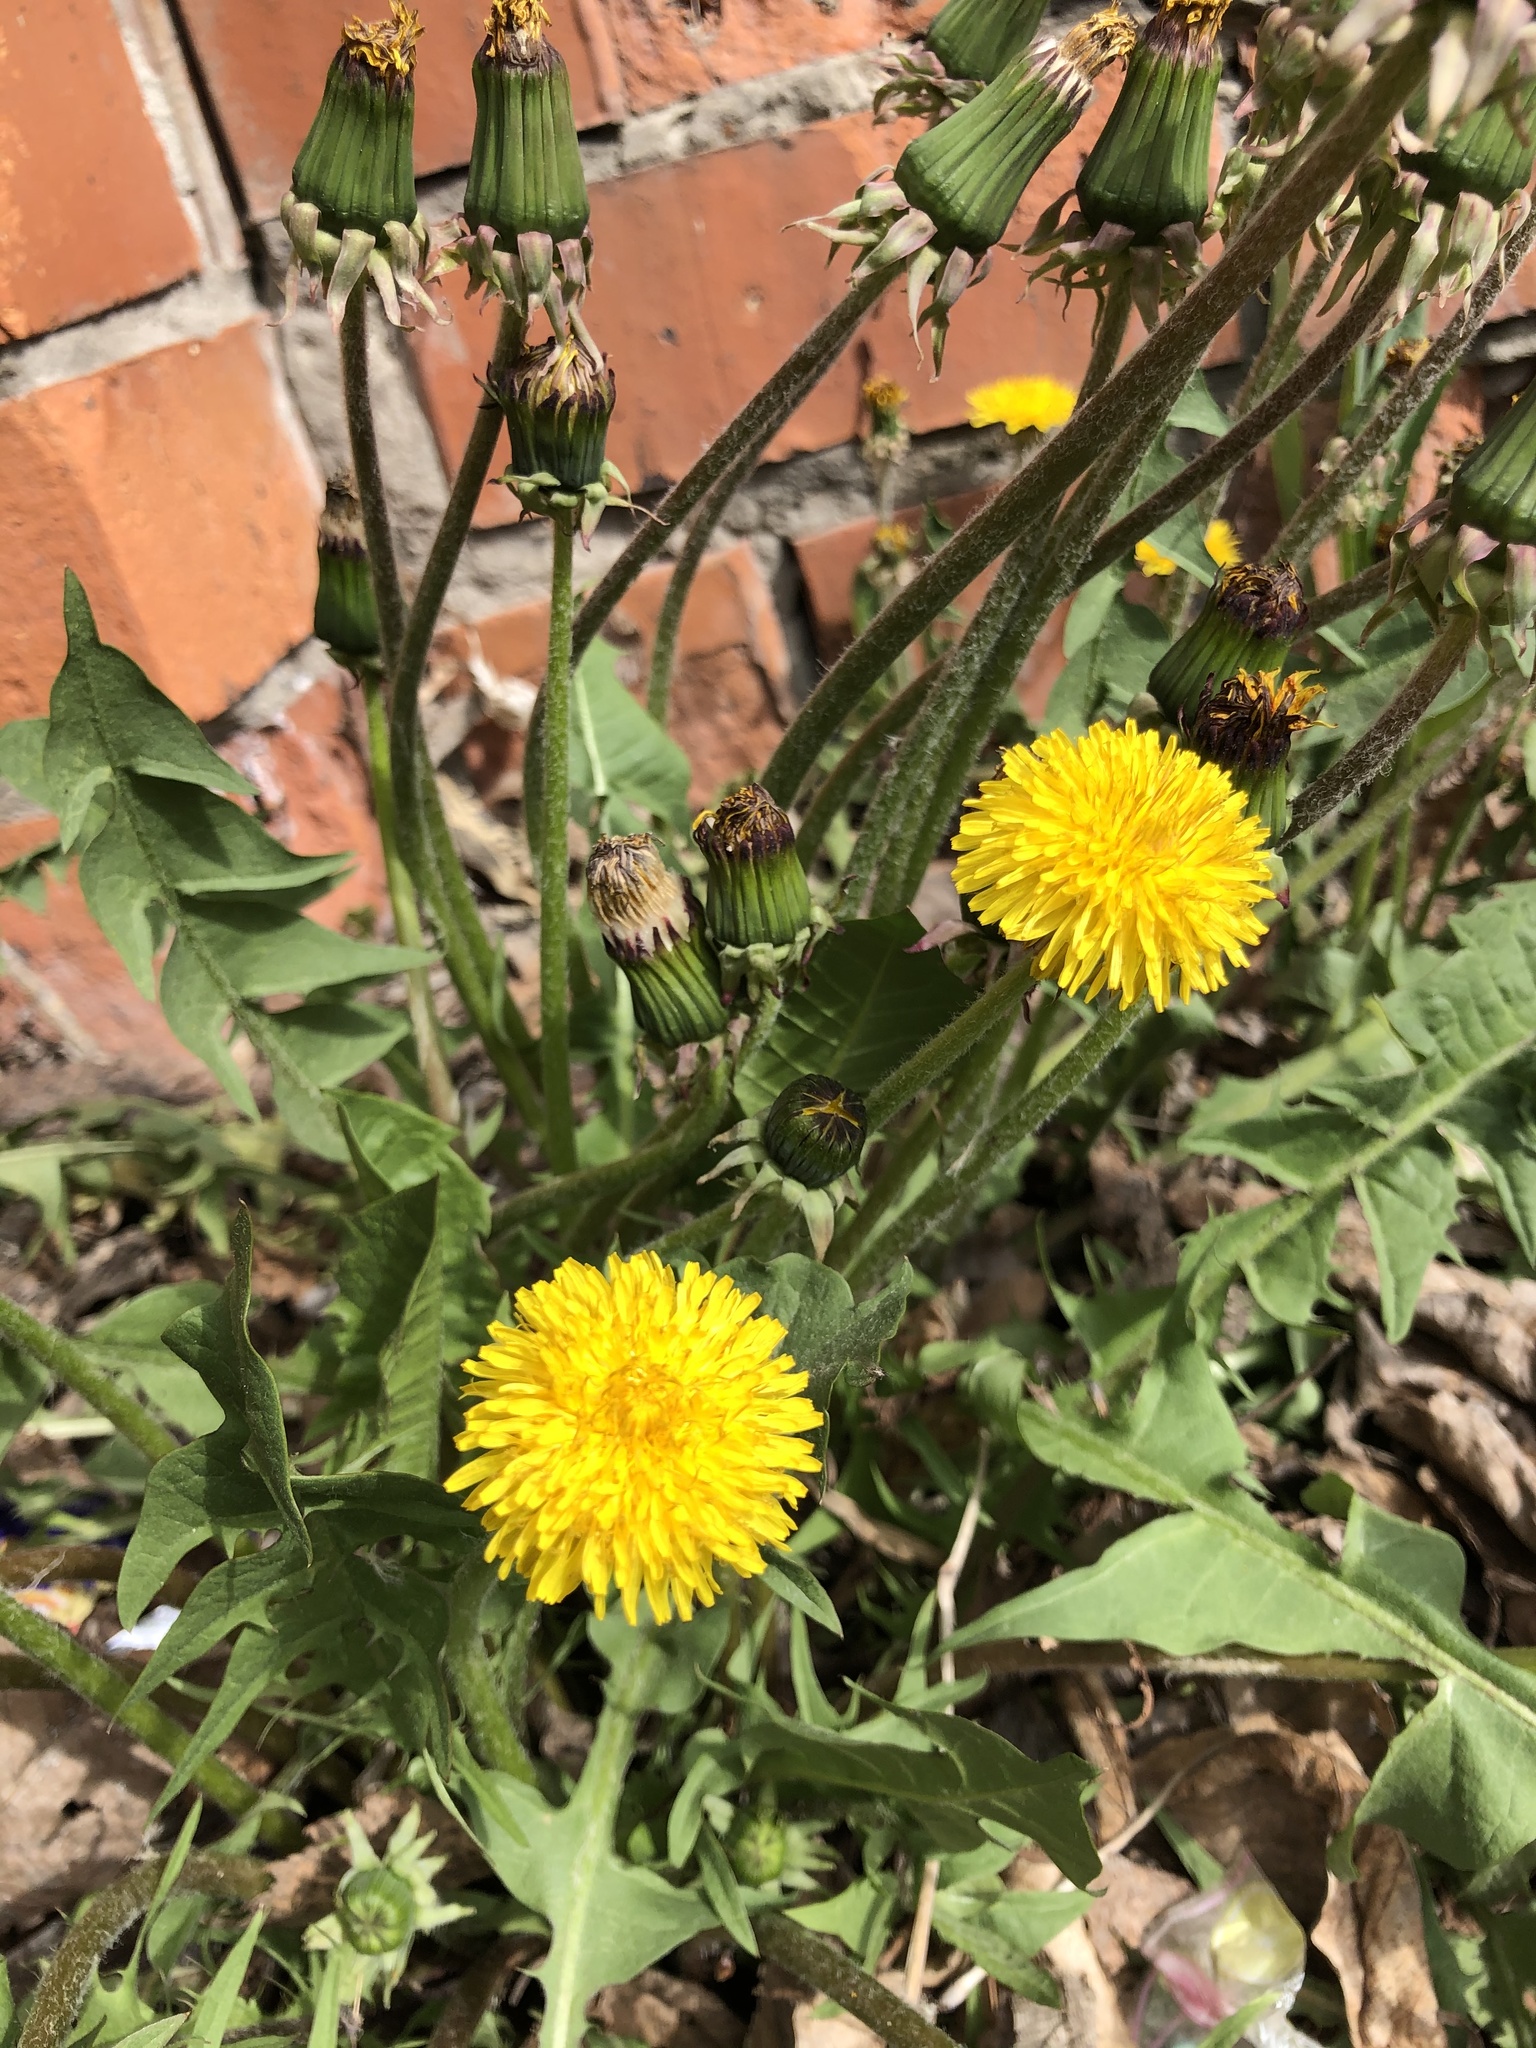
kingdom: Plantae
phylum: Tracheophyta
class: Magnoliopsida
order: Asterales
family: Asteraceae
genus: Taraxacum
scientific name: Taraxacum officinale
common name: Common dandelion
